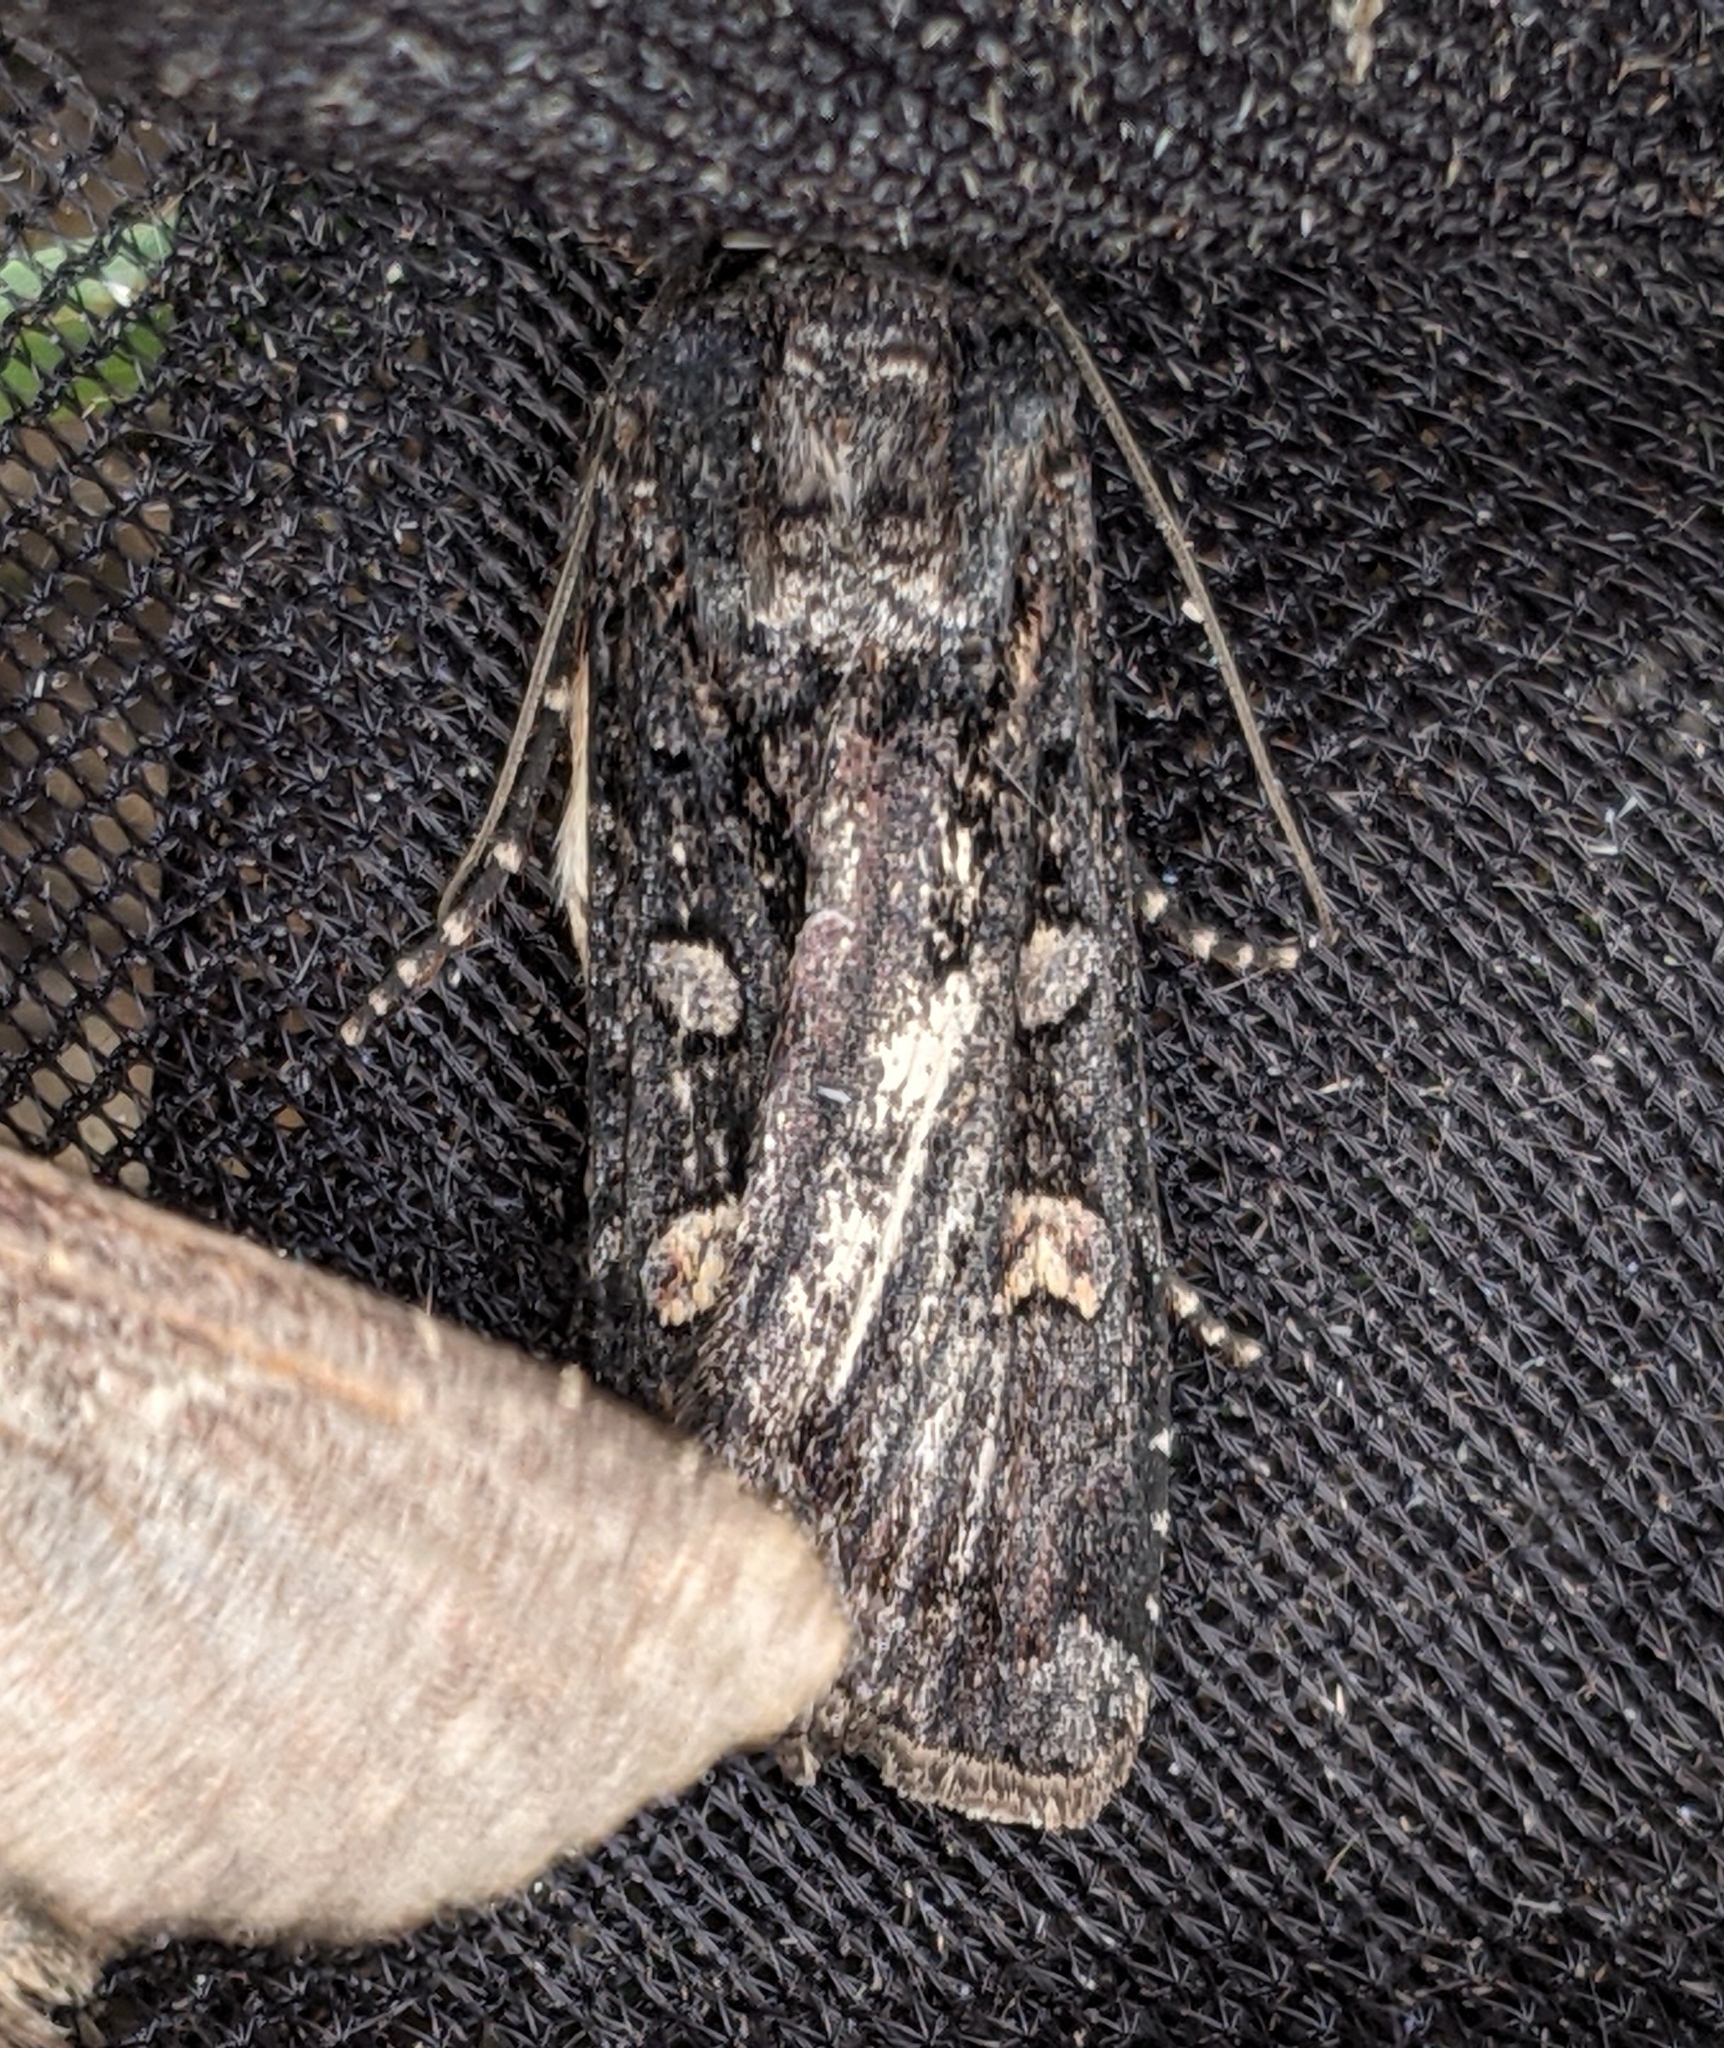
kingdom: Animalia
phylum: Arthropoda
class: Insecta
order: Lepidoptera
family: Noctuidae
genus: Actebia
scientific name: Actebia fennica
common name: Eversmann's rustic
